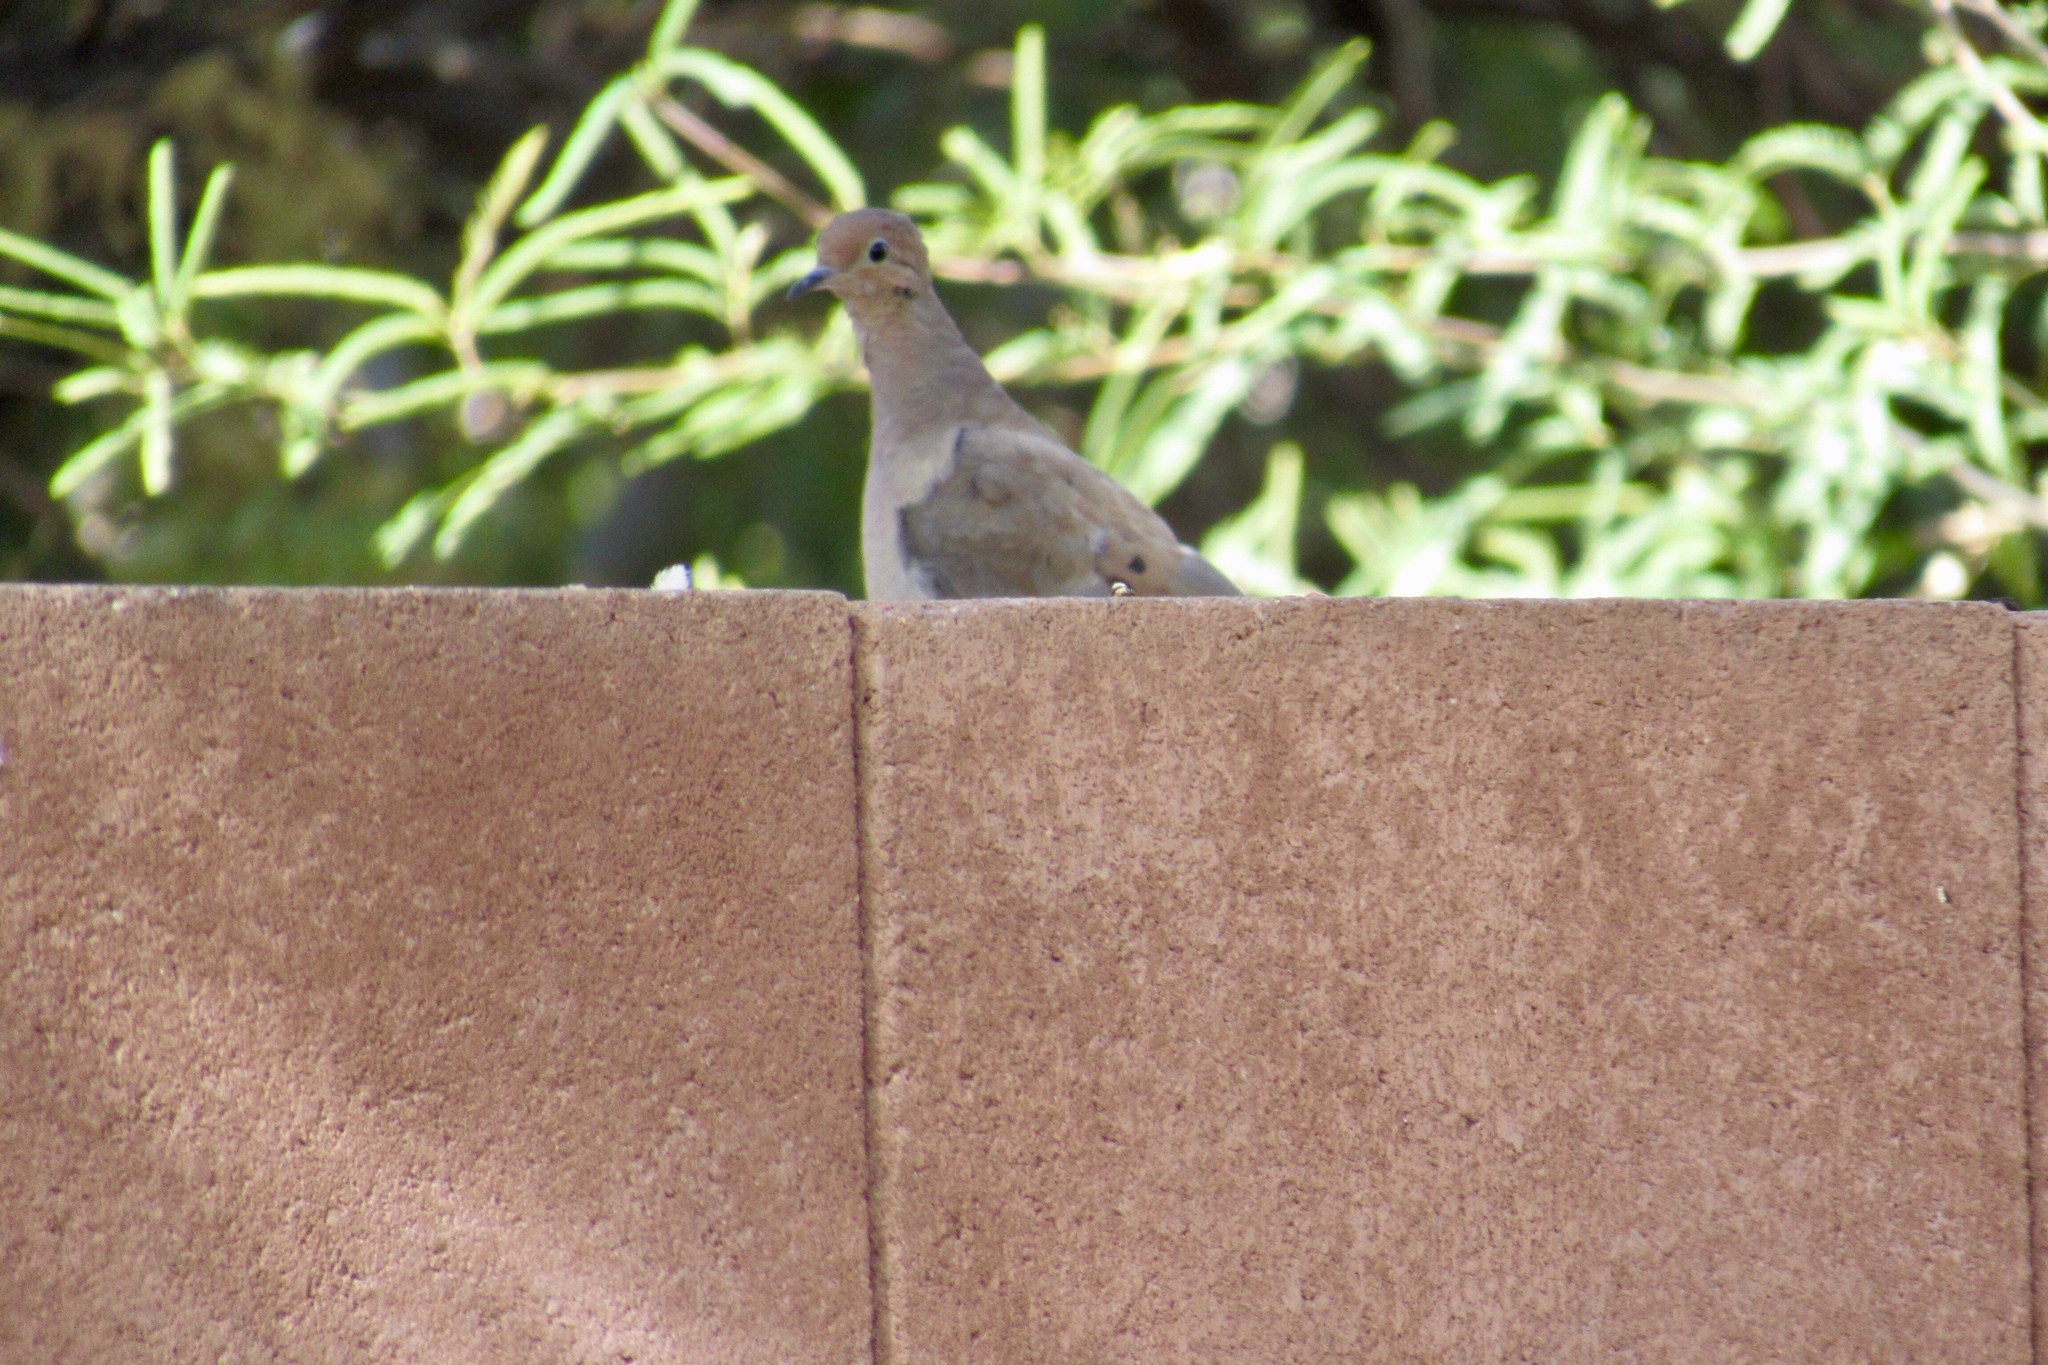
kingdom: Animalia
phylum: Chordata
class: Aves
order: Columbiformes
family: Columbidae
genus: Zenaida
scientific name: Zenaida macroura
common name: Mourning dove
